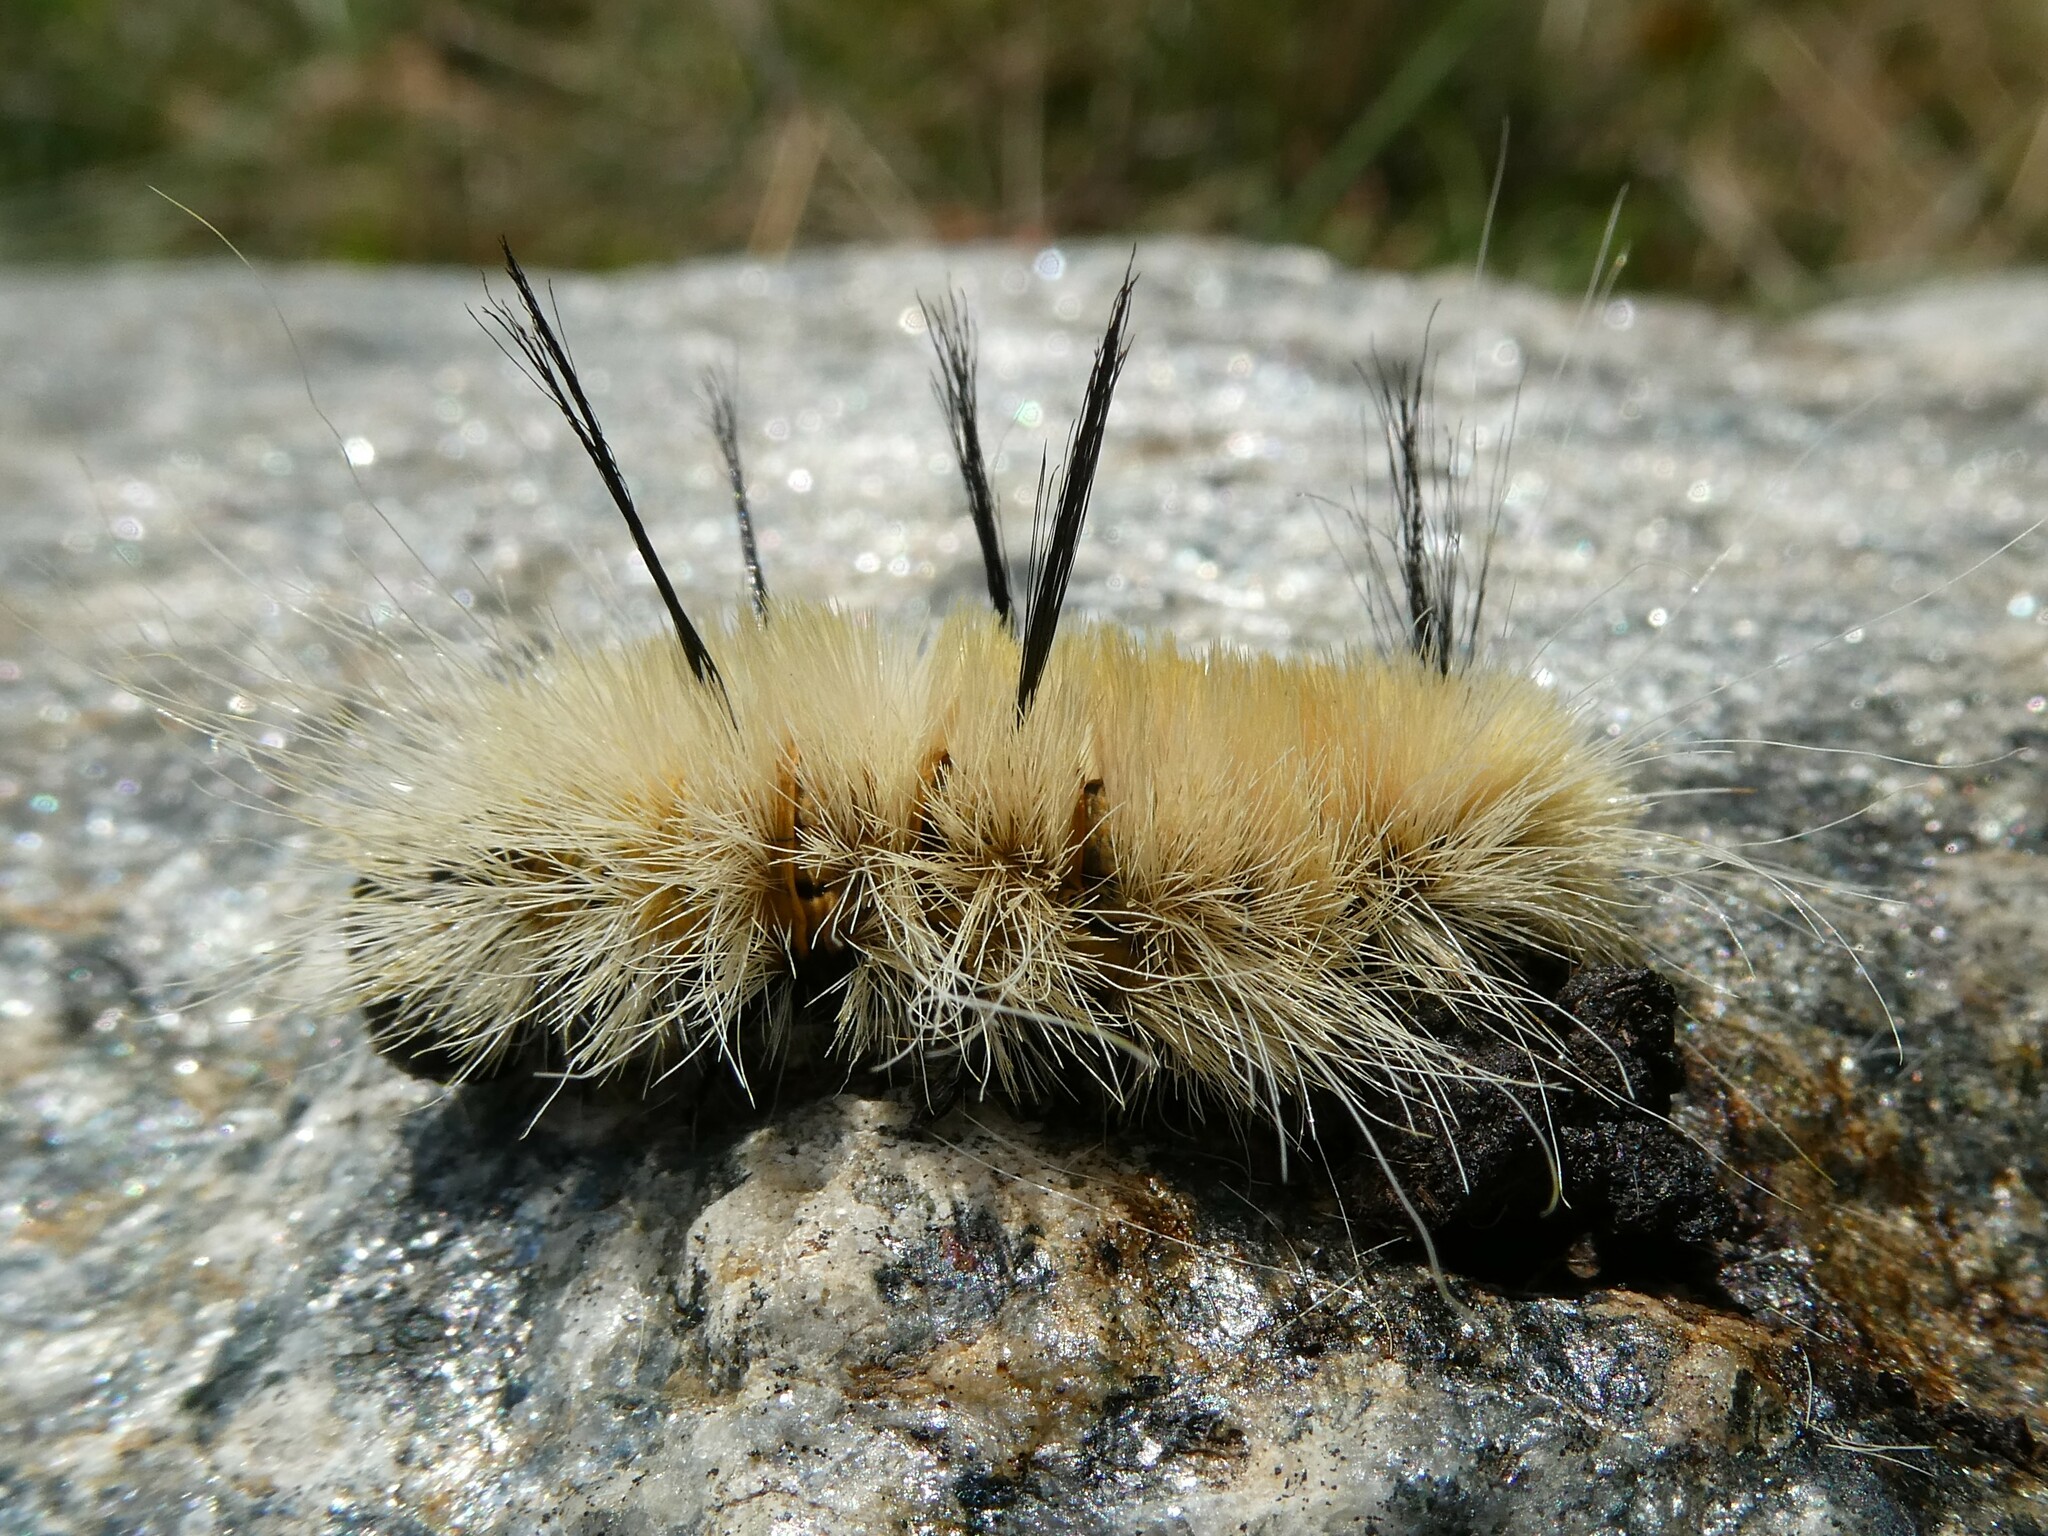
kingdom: Animalia
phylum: Arthropoda
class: Insecta
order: Lepidoptera
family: Noctuidae
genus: Acronicta
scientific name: Acronicta americana
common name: American dagger
